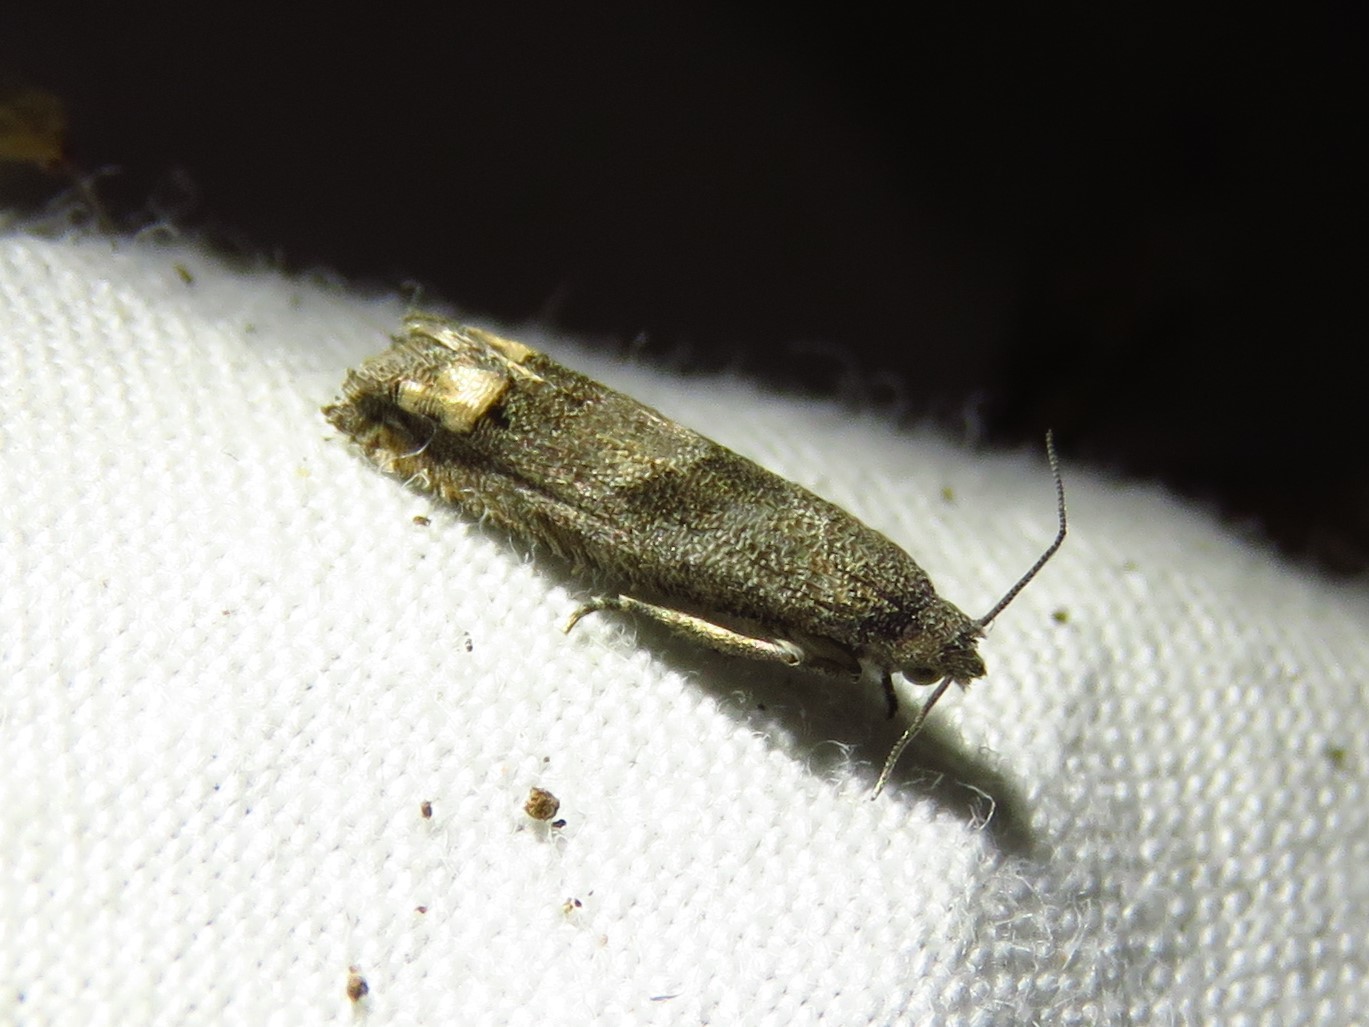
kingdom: Animalia
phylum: Arthropoda
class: Insecta
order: Lepidoptera
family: Tortricidae
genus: Epiblema
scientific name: Epiblema strenuana
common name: Ragweed borer moth
